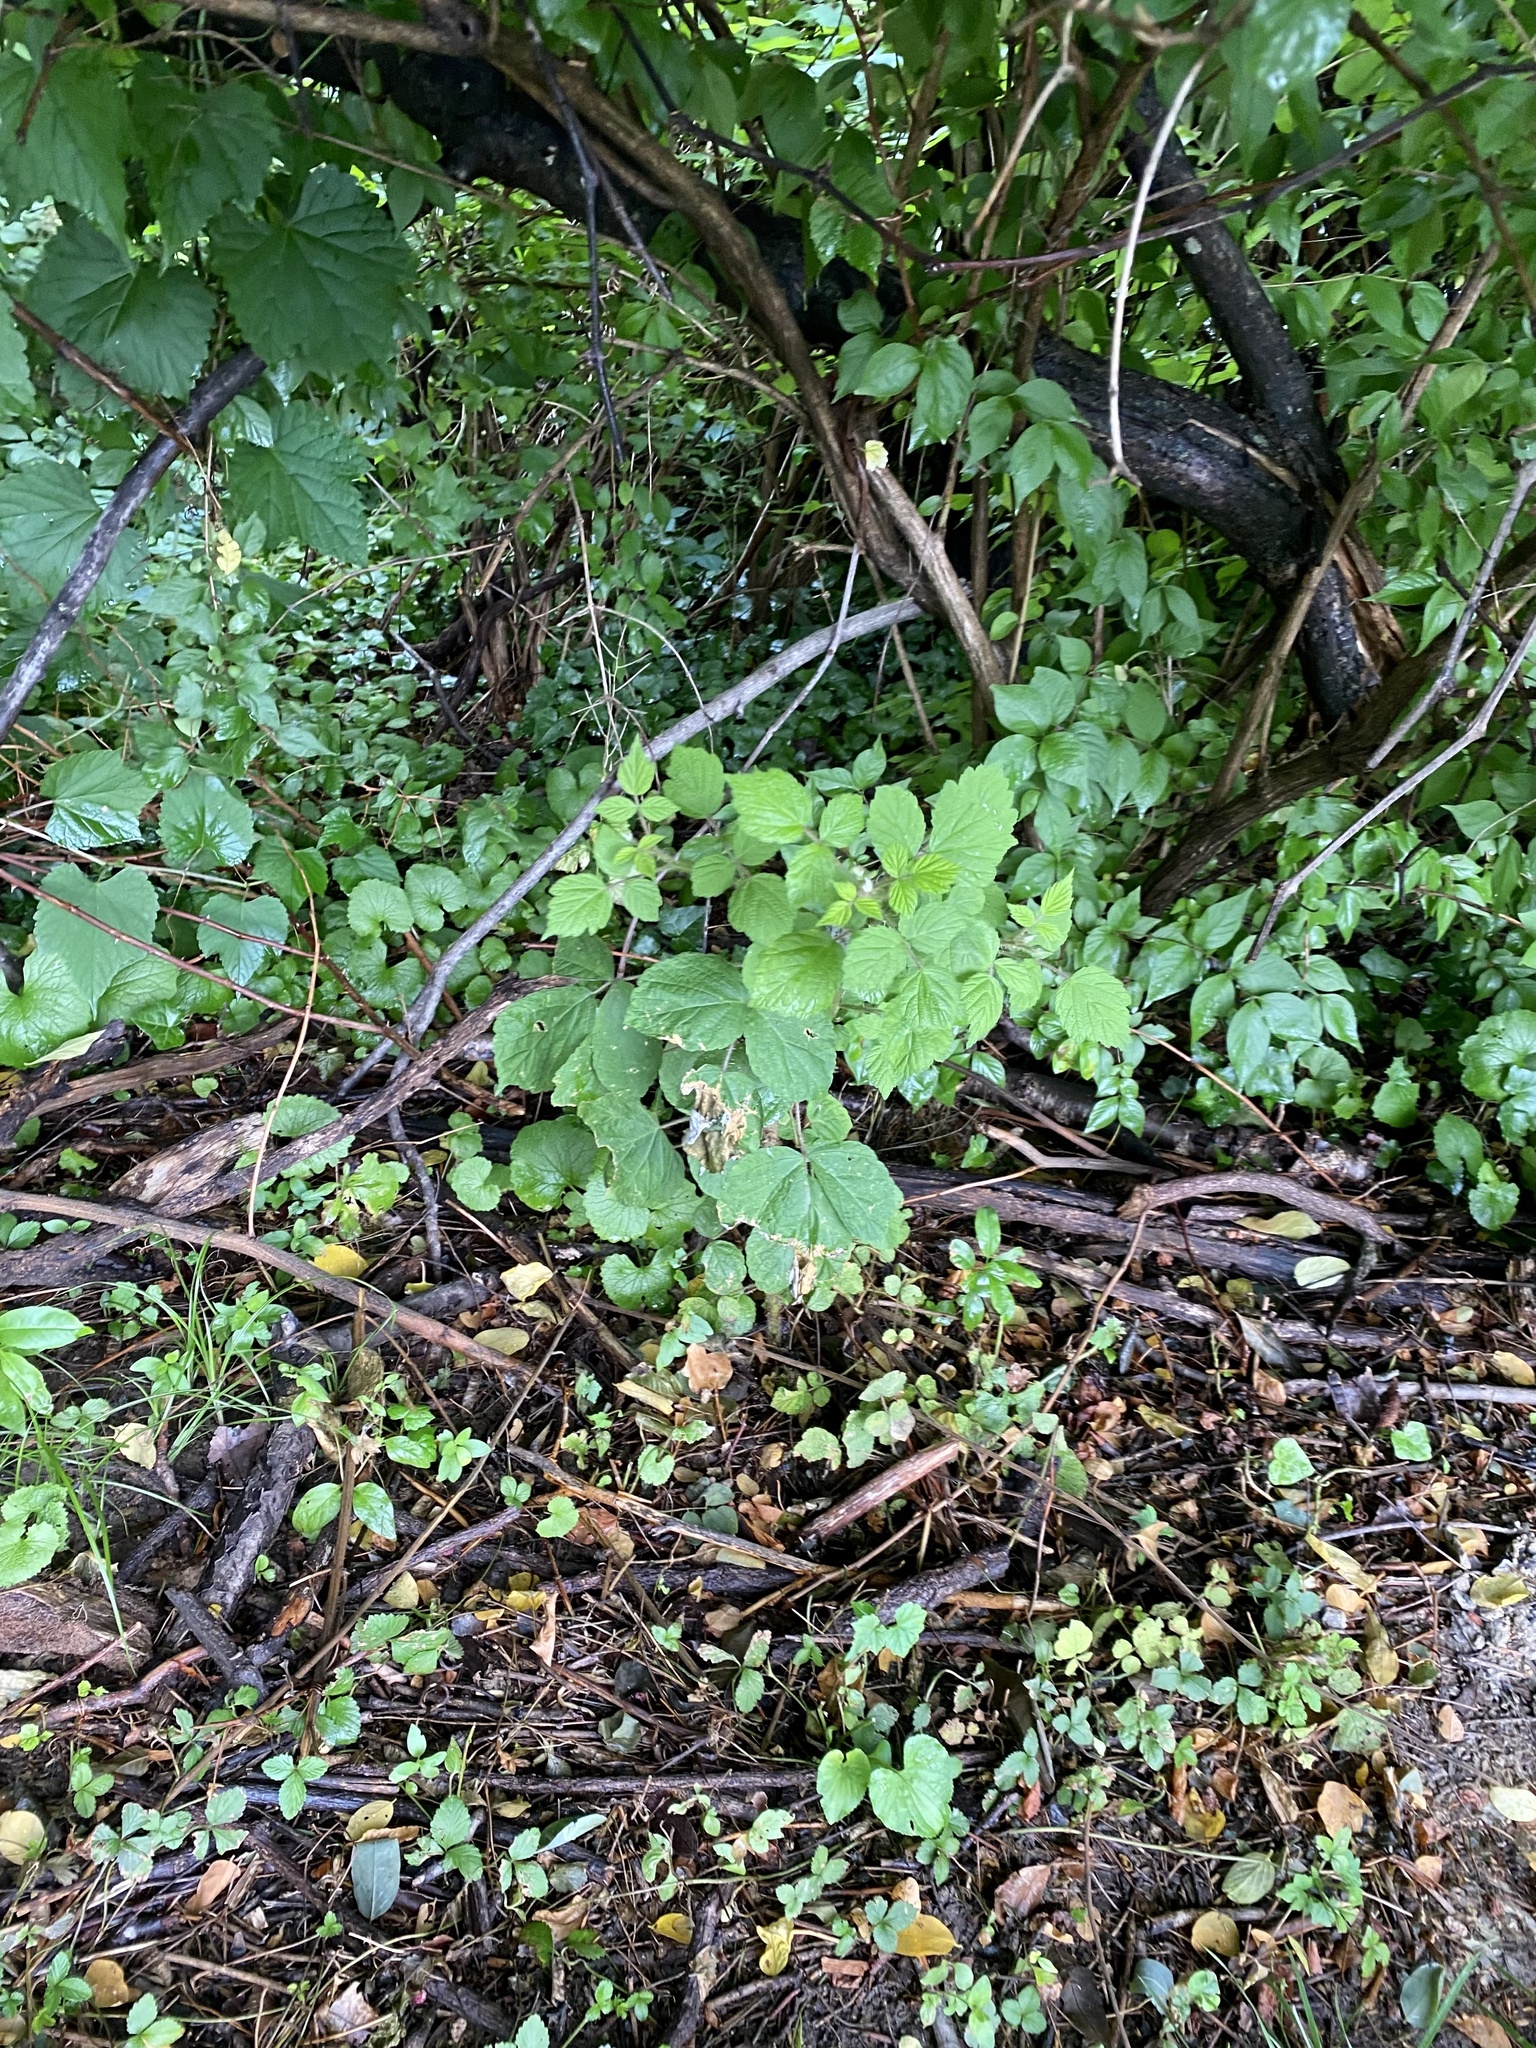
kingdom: Plantae
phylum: Tracheophyta
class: Magnoliopsida
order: Rosales
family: Rosaceae
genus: Rubus
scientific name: Rubus phoenicolasius
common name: Japanese wineberry
